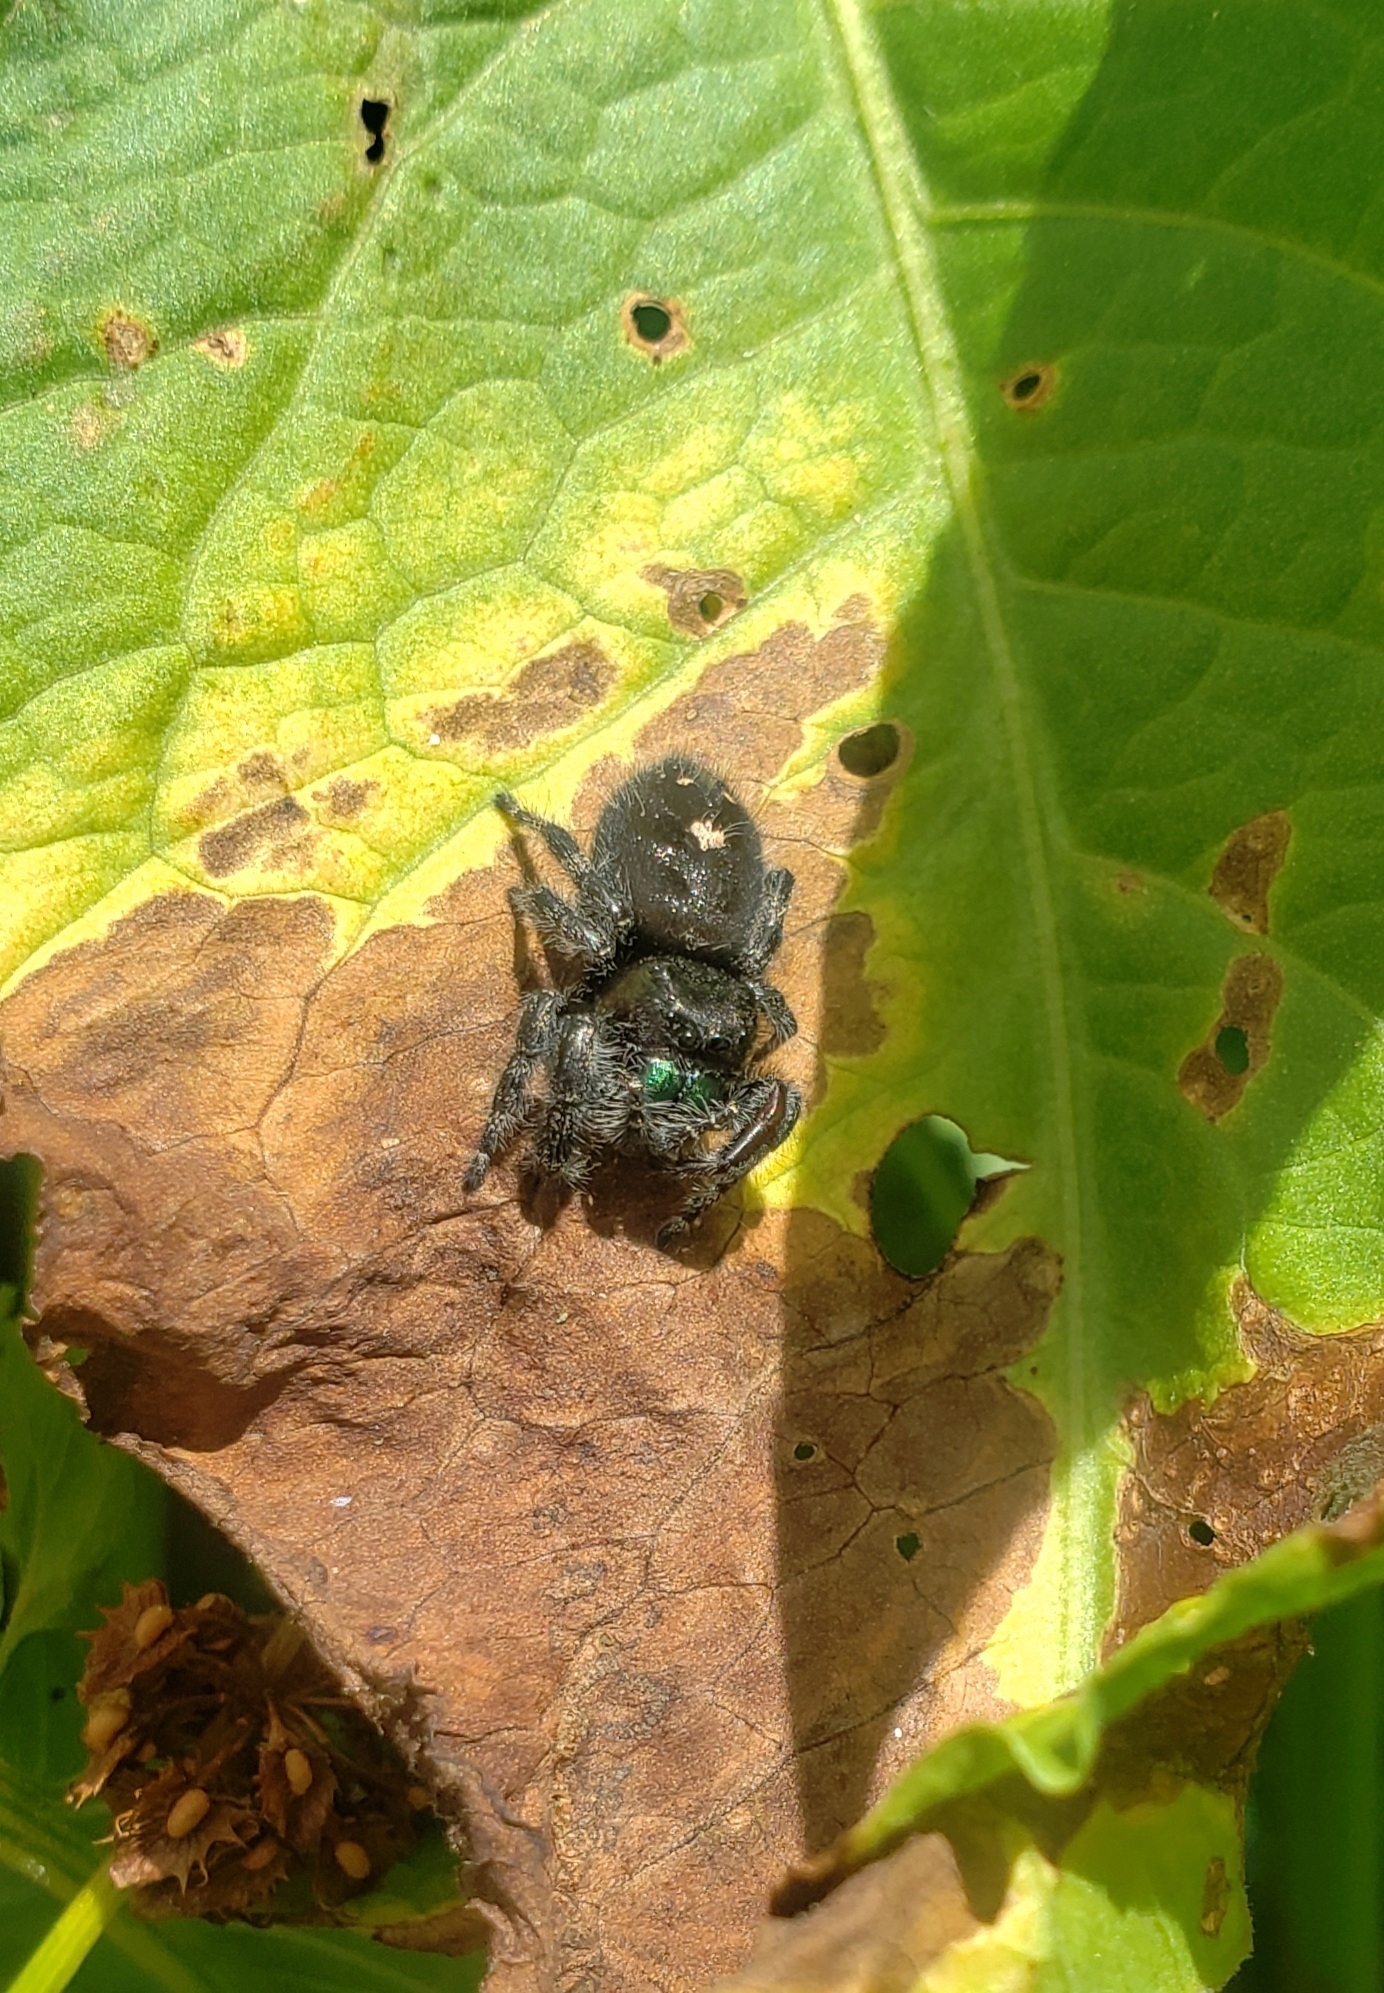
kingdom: Animalia
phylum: Arthropoda
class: Arachnida
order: Araneae
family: Salticidae
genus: Phidippus
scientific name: Phidippus audax
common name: Bold jumper
